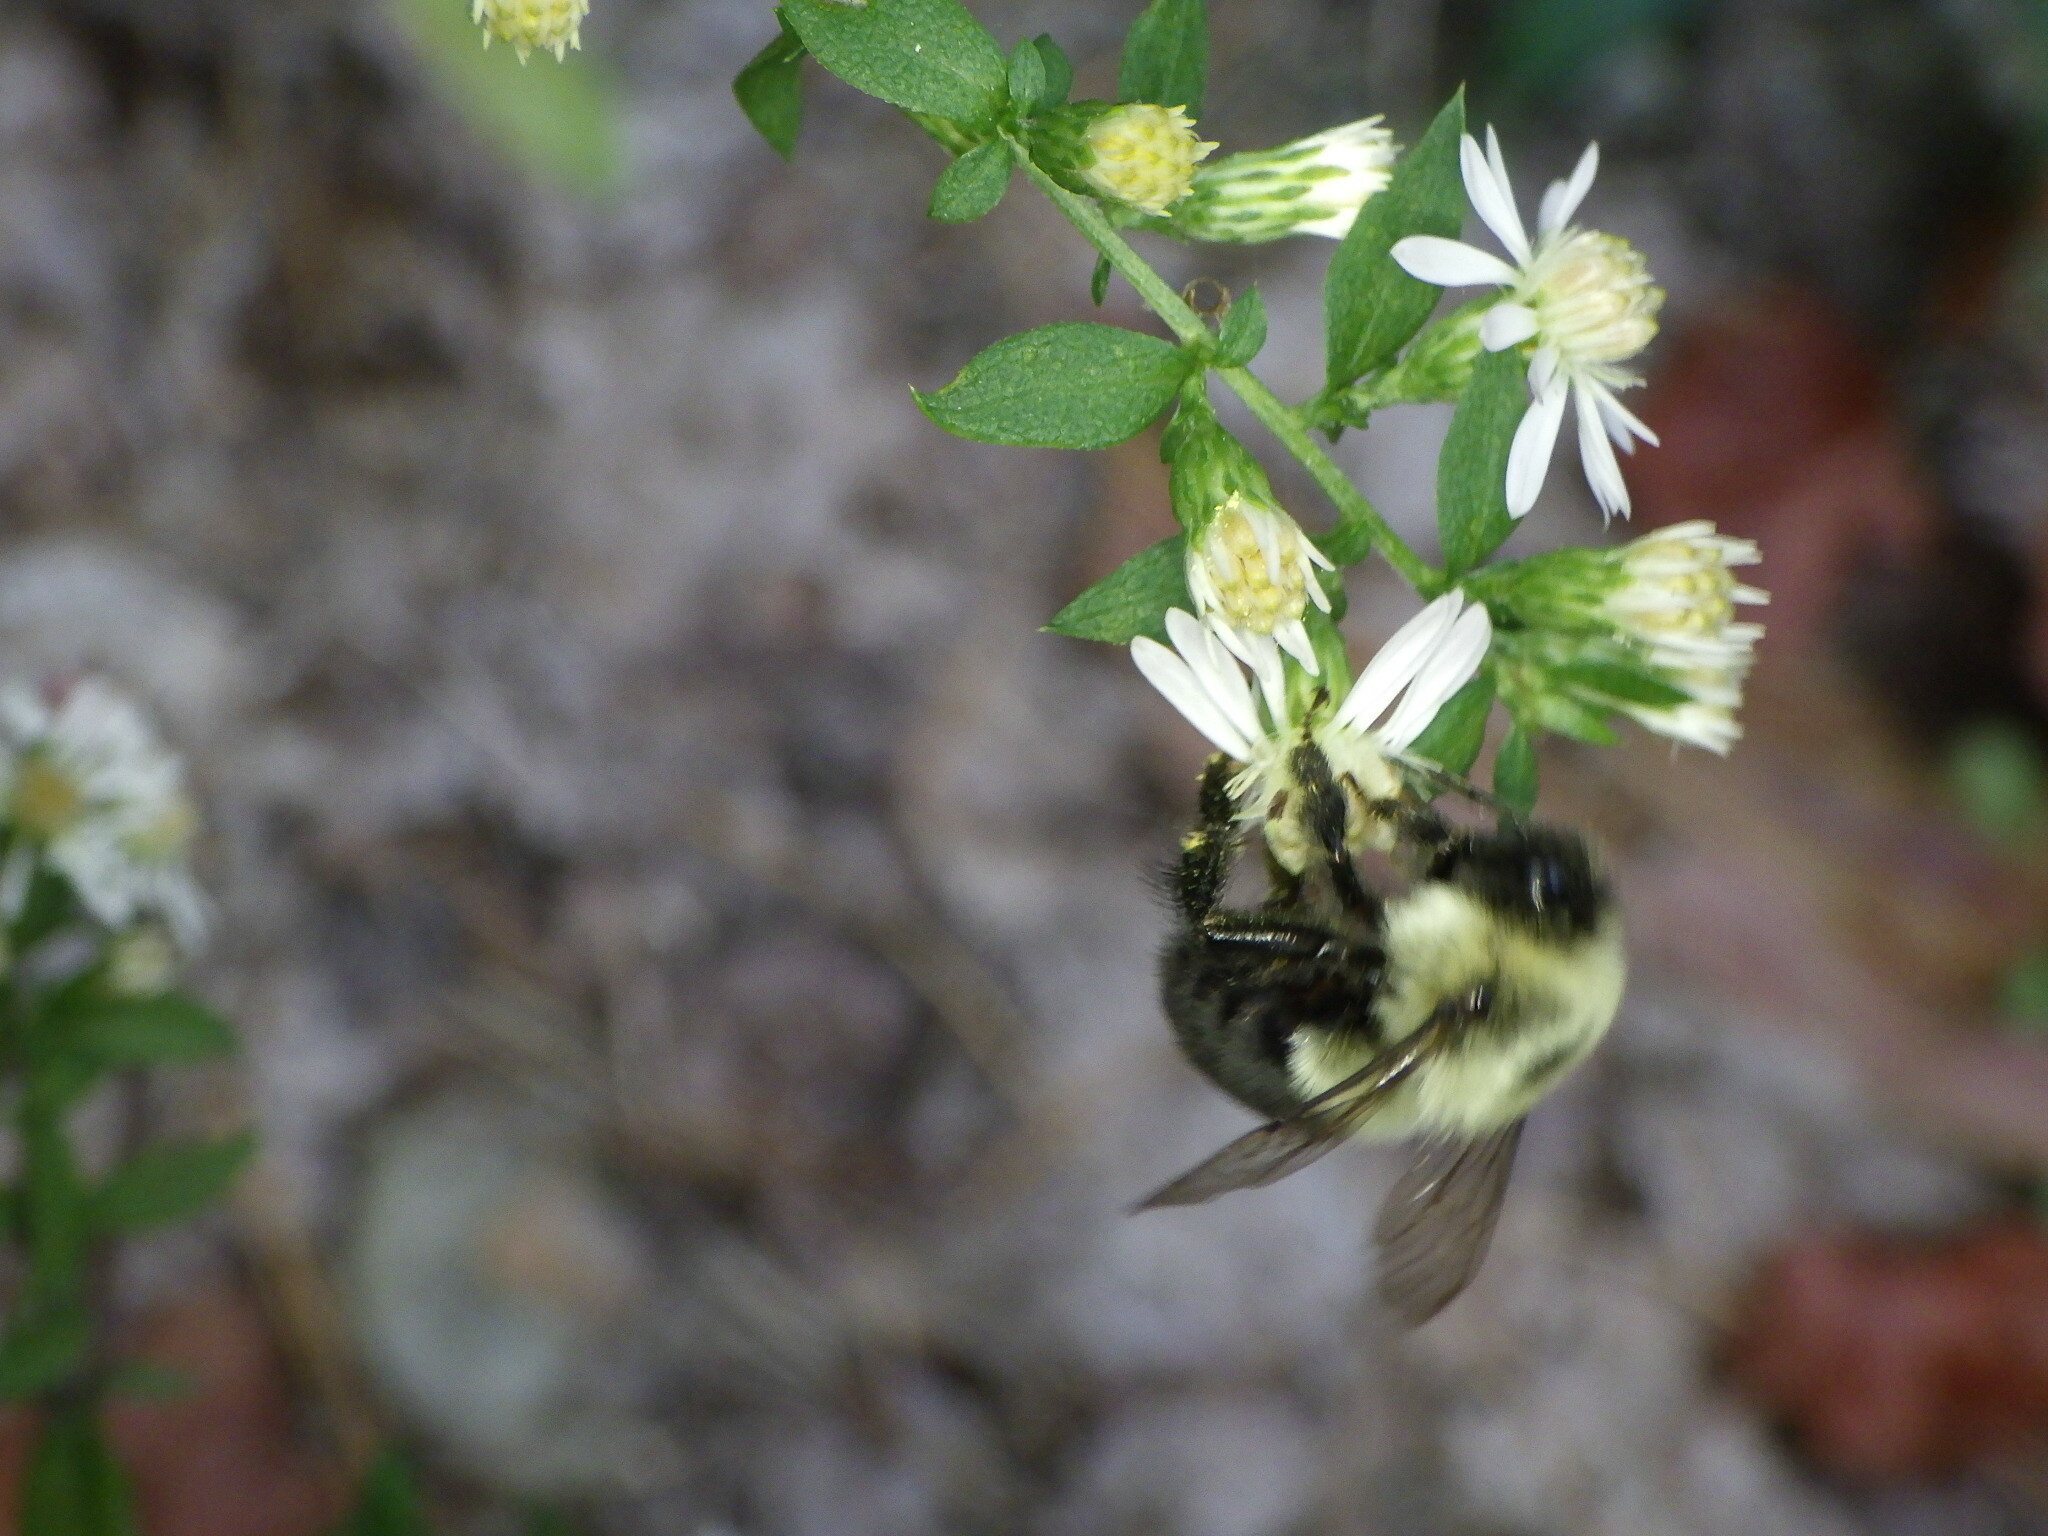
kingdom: Animalia
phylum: Arthropoda
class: Insecta
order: Hymenoptera
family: Apidae
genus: Bombus
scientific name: Bombus impatiens
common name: Common eastern bumble bee
